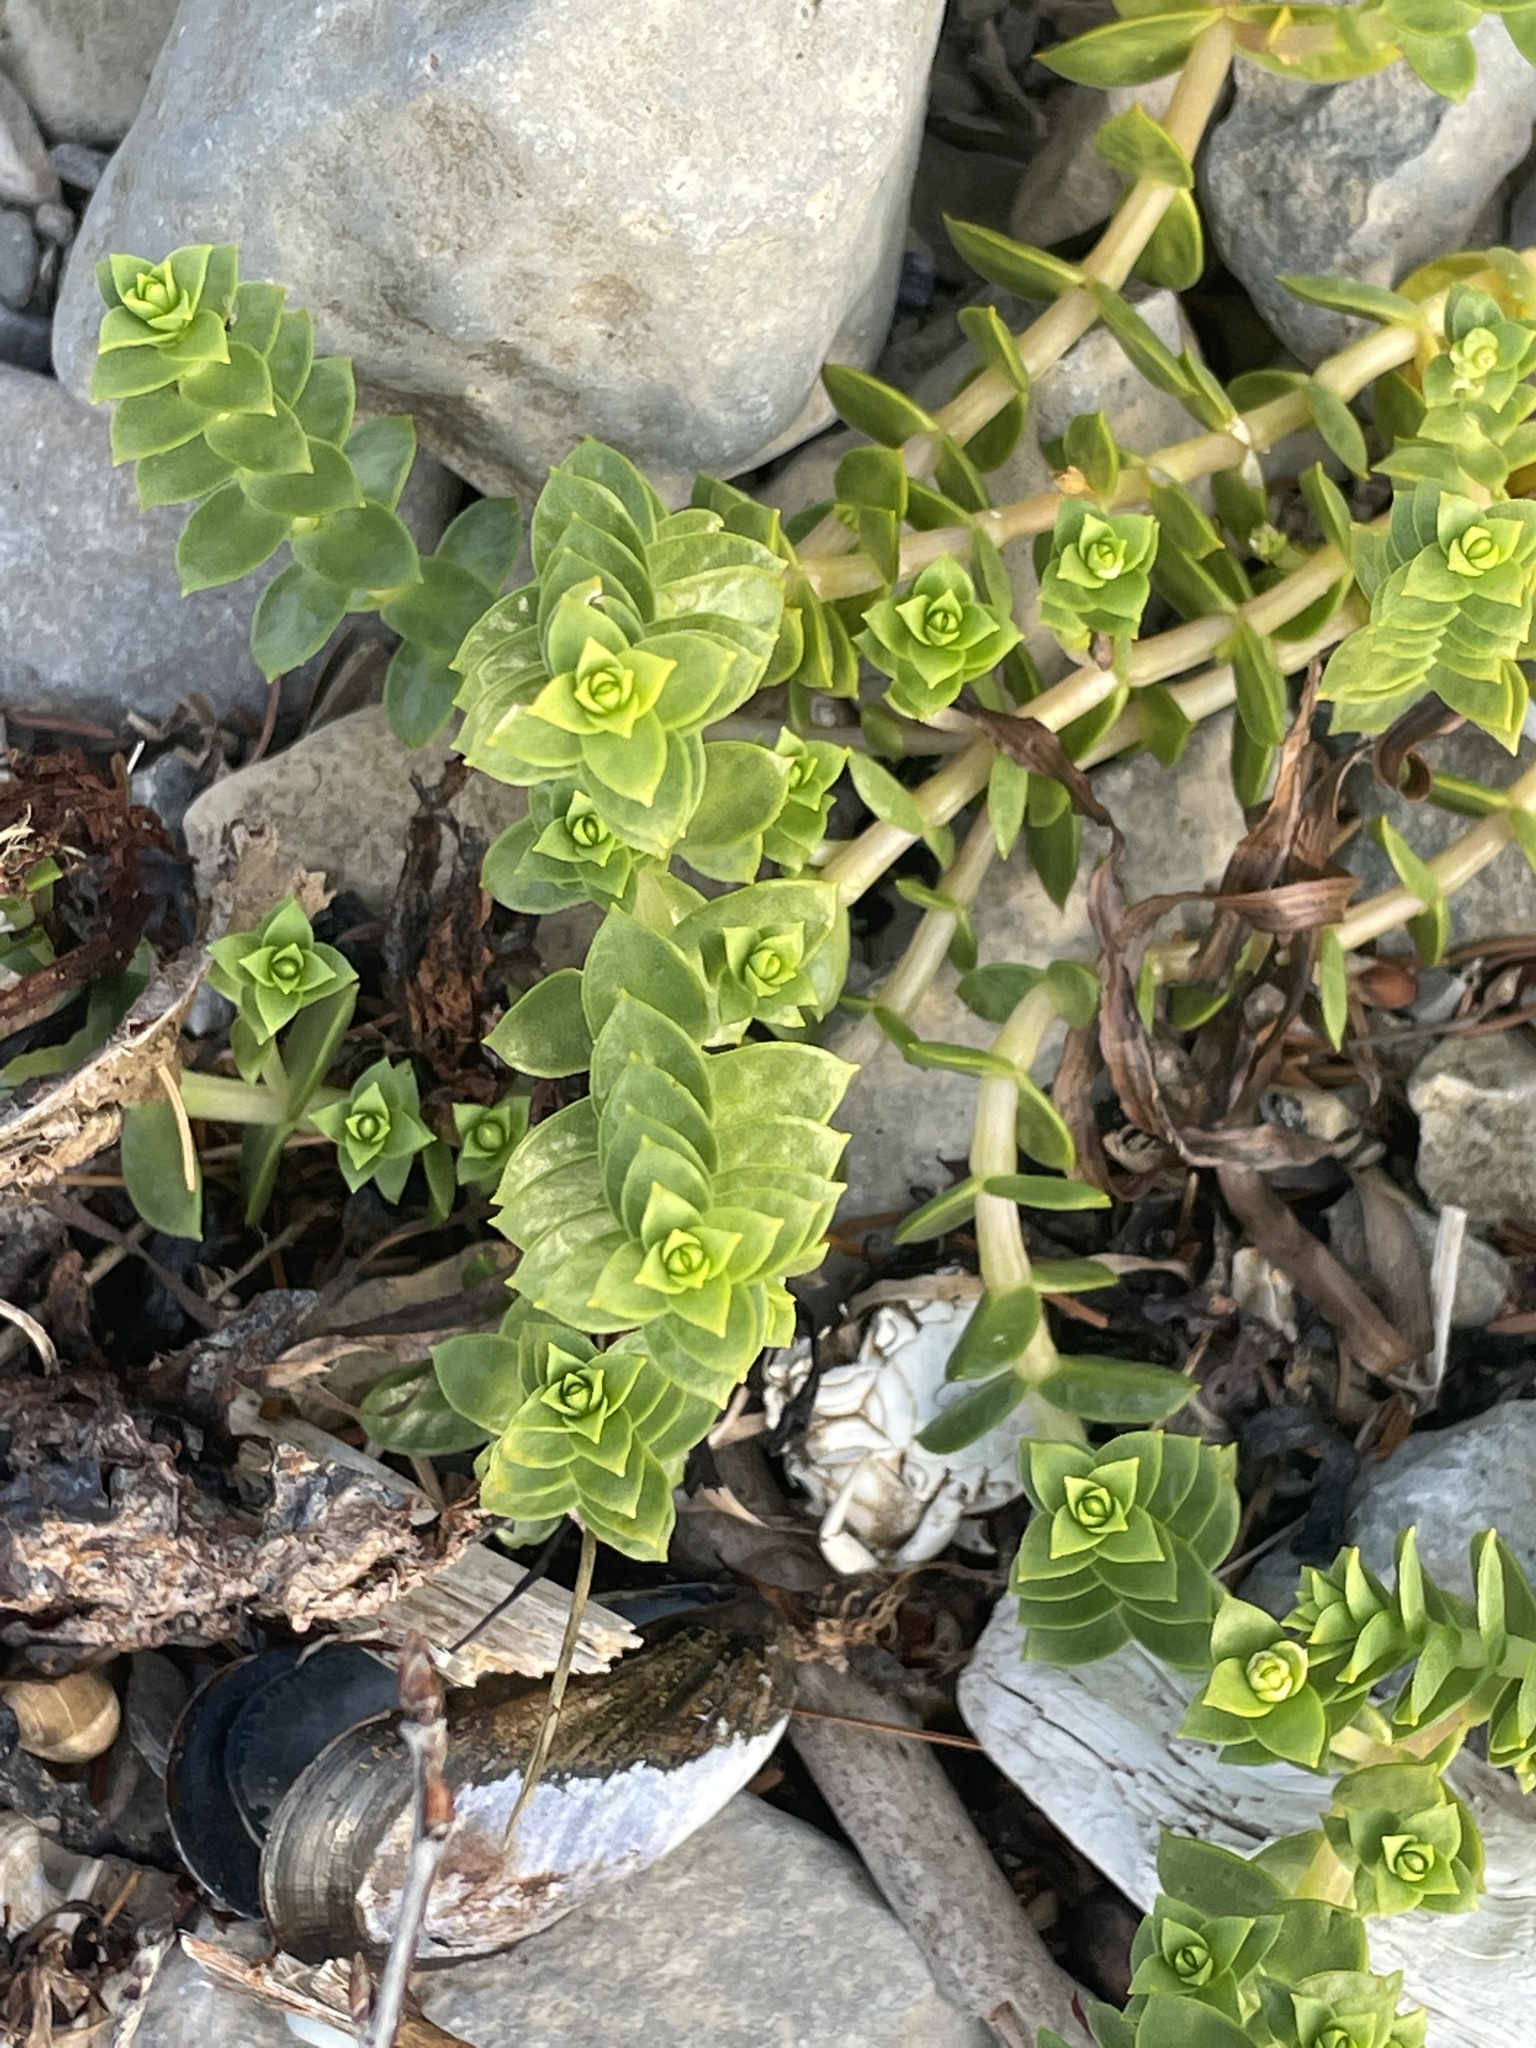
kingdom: Plantae
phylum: Tracheophyta
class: Magnoliopsida
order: Caryophyllales
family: Caryophyllaceae
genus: Honckenya
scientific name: Honckenya peploides
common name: Sea sandwort
